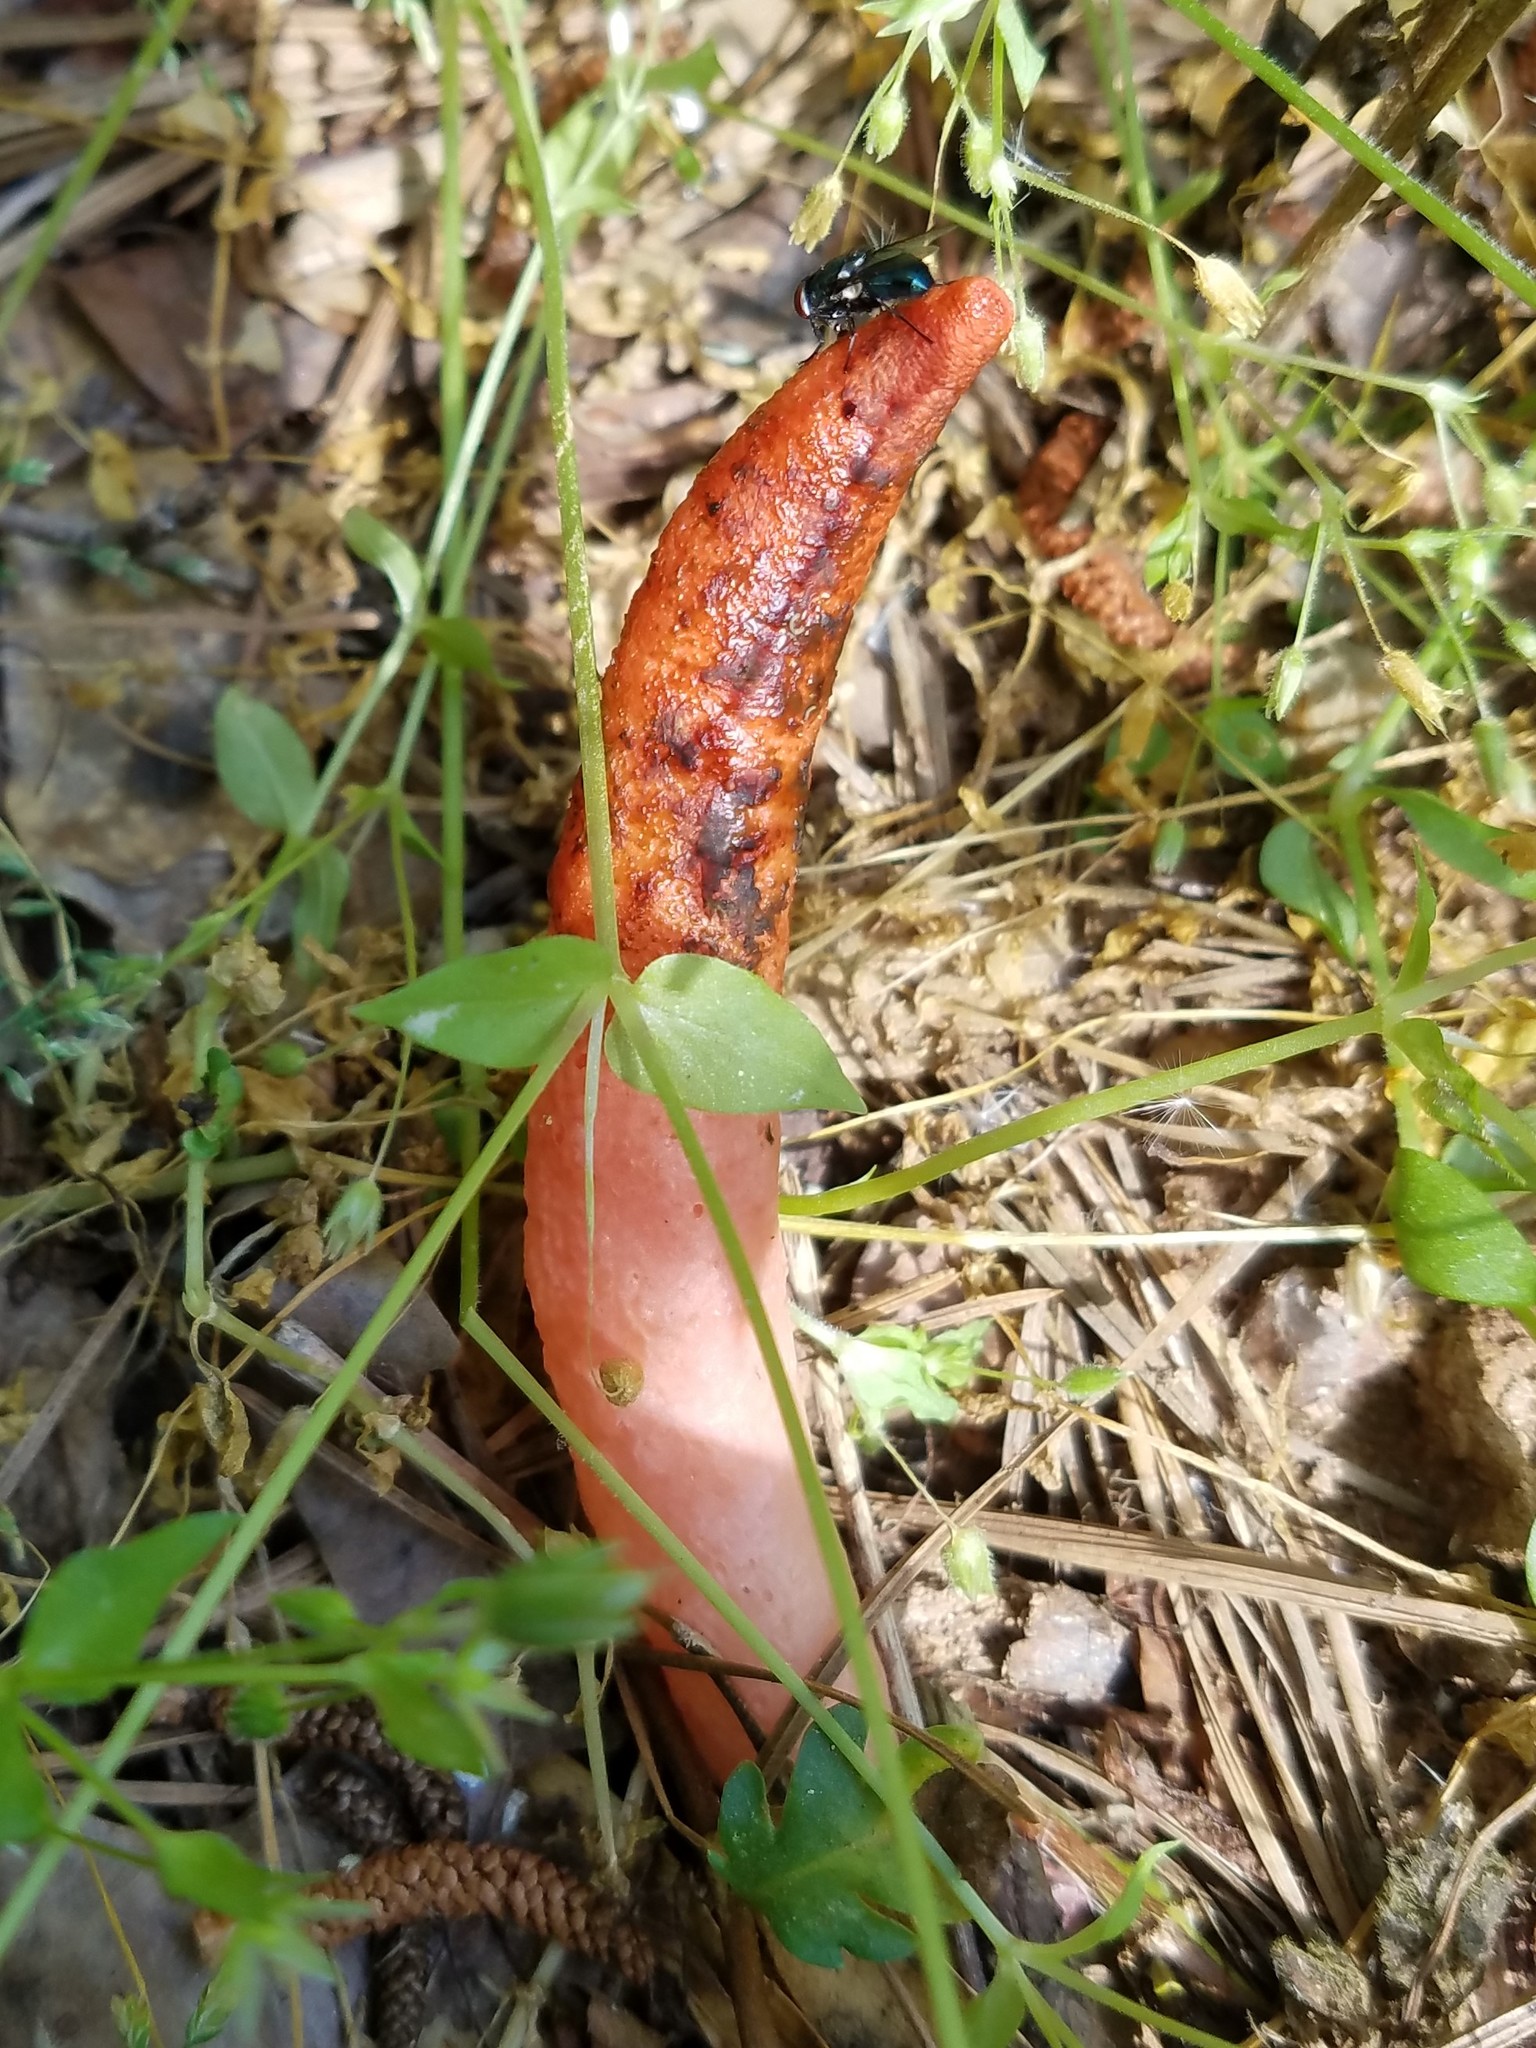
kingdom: Fungi
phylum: Basidiomycota
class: Agaricomycetes
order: Phallales
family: Phallaceae
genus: Mutinus
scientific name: Mutinus elegans
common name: Devil's dipstick
